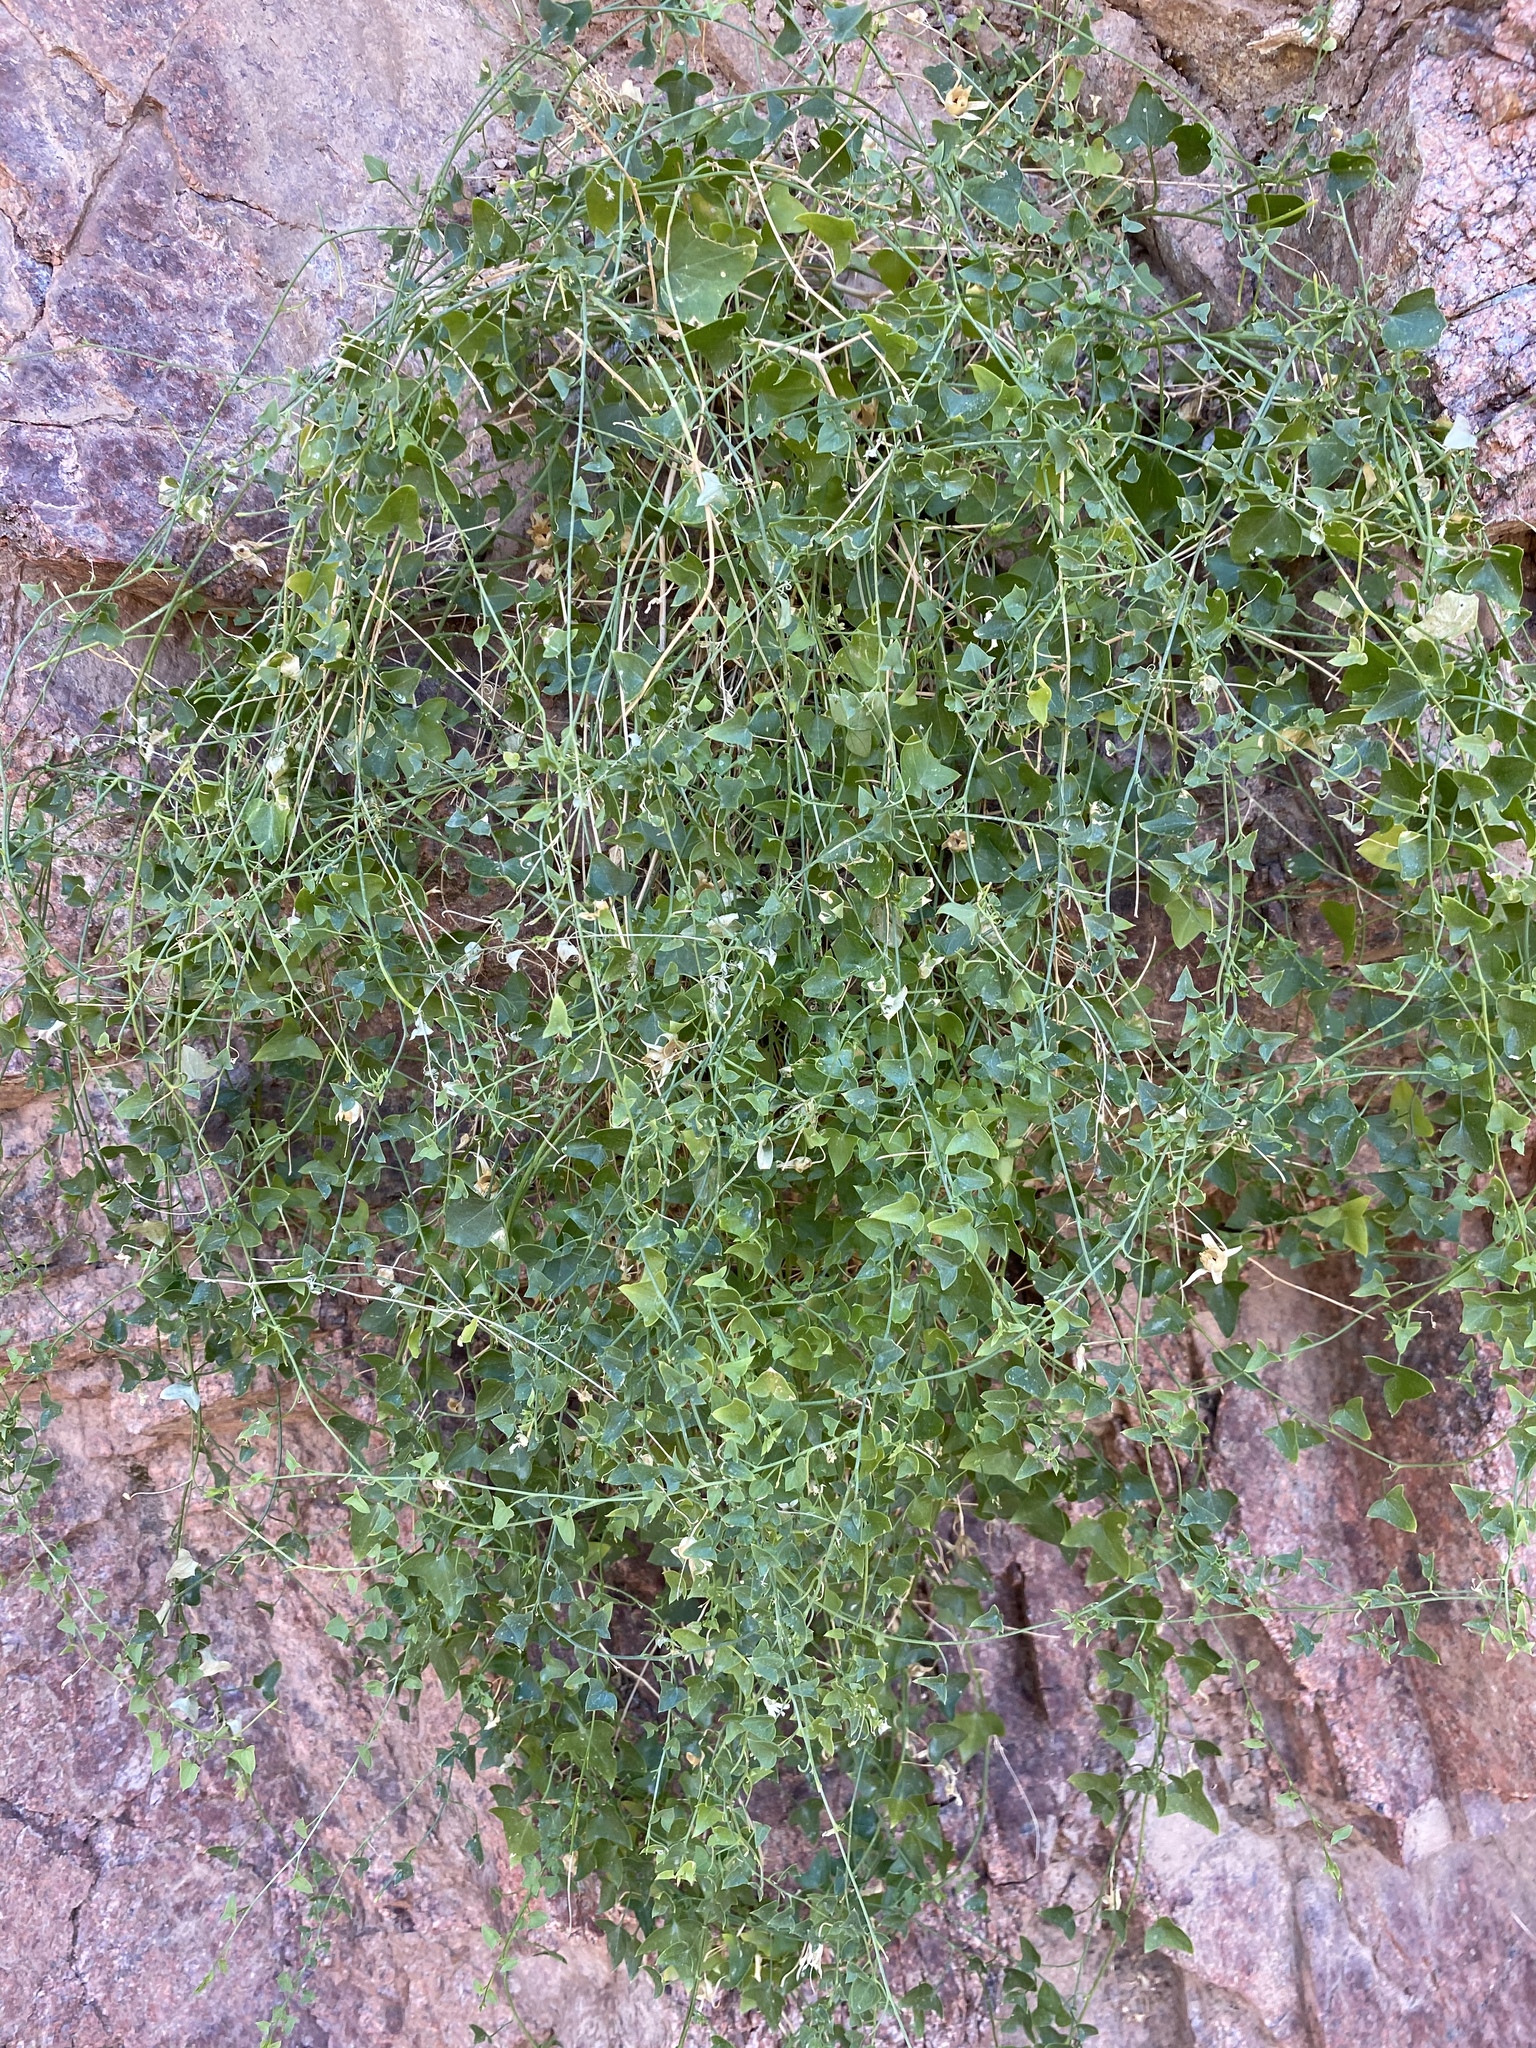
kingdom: Plantae
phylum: Tracheophyta
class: Magnoliopsida
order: Lamiales
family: Plantaginaceae
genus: Maurandella
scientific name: Maurandella antirrhiniflora
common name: Violet twining-snapdragon
